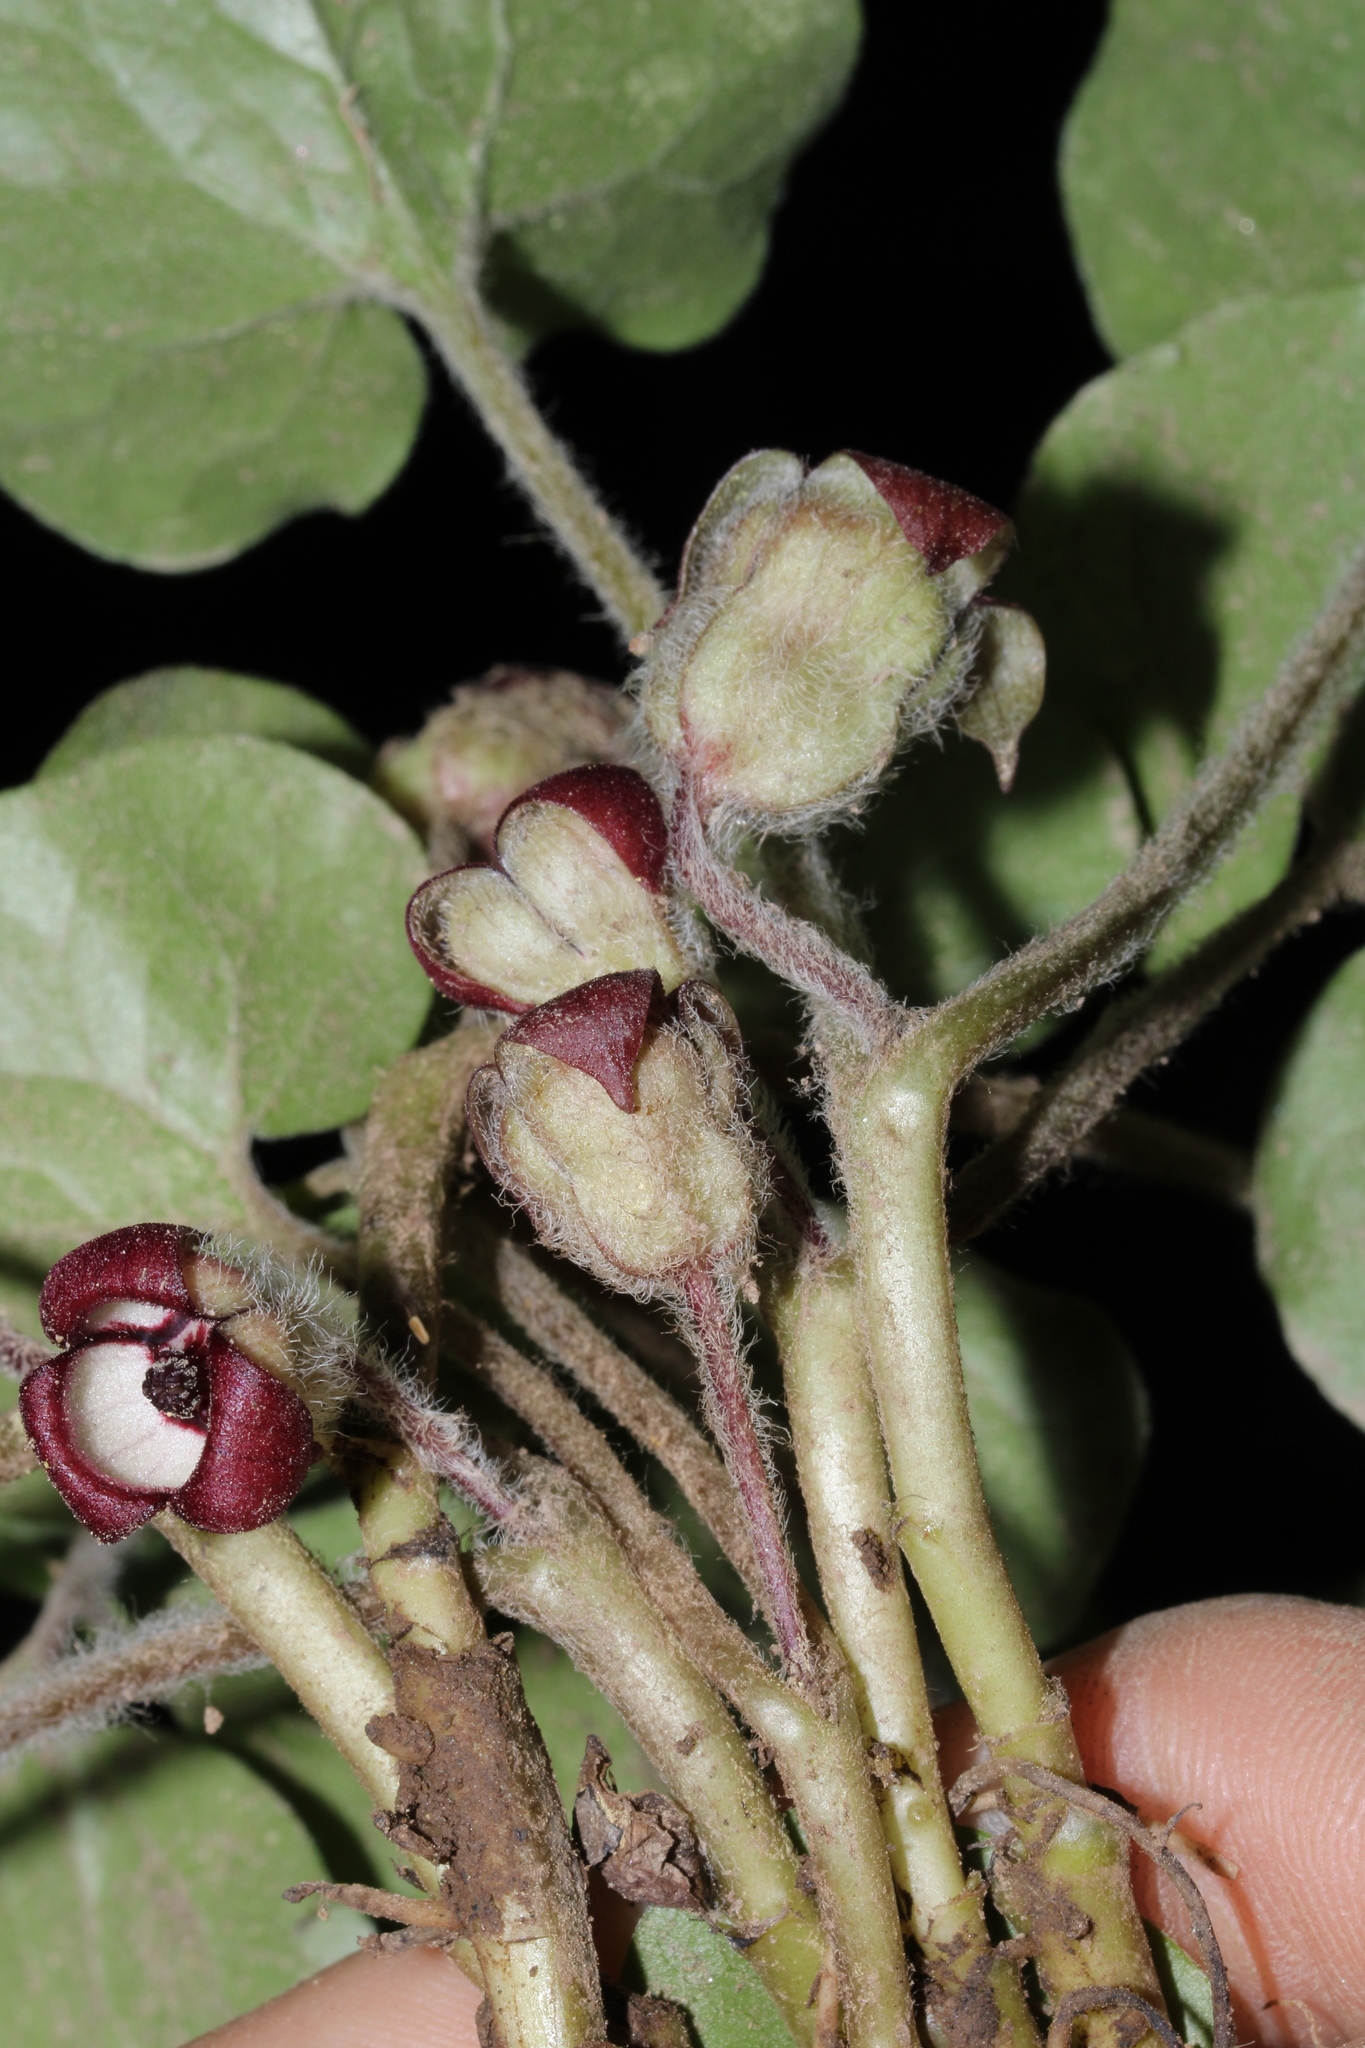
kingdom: Plantae
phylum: Tracheophyta
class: Magnoliopsida
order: Piperales
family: Aristolochiaceae
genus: Asarum
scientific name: Asarum canadense
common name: Wild ginger
